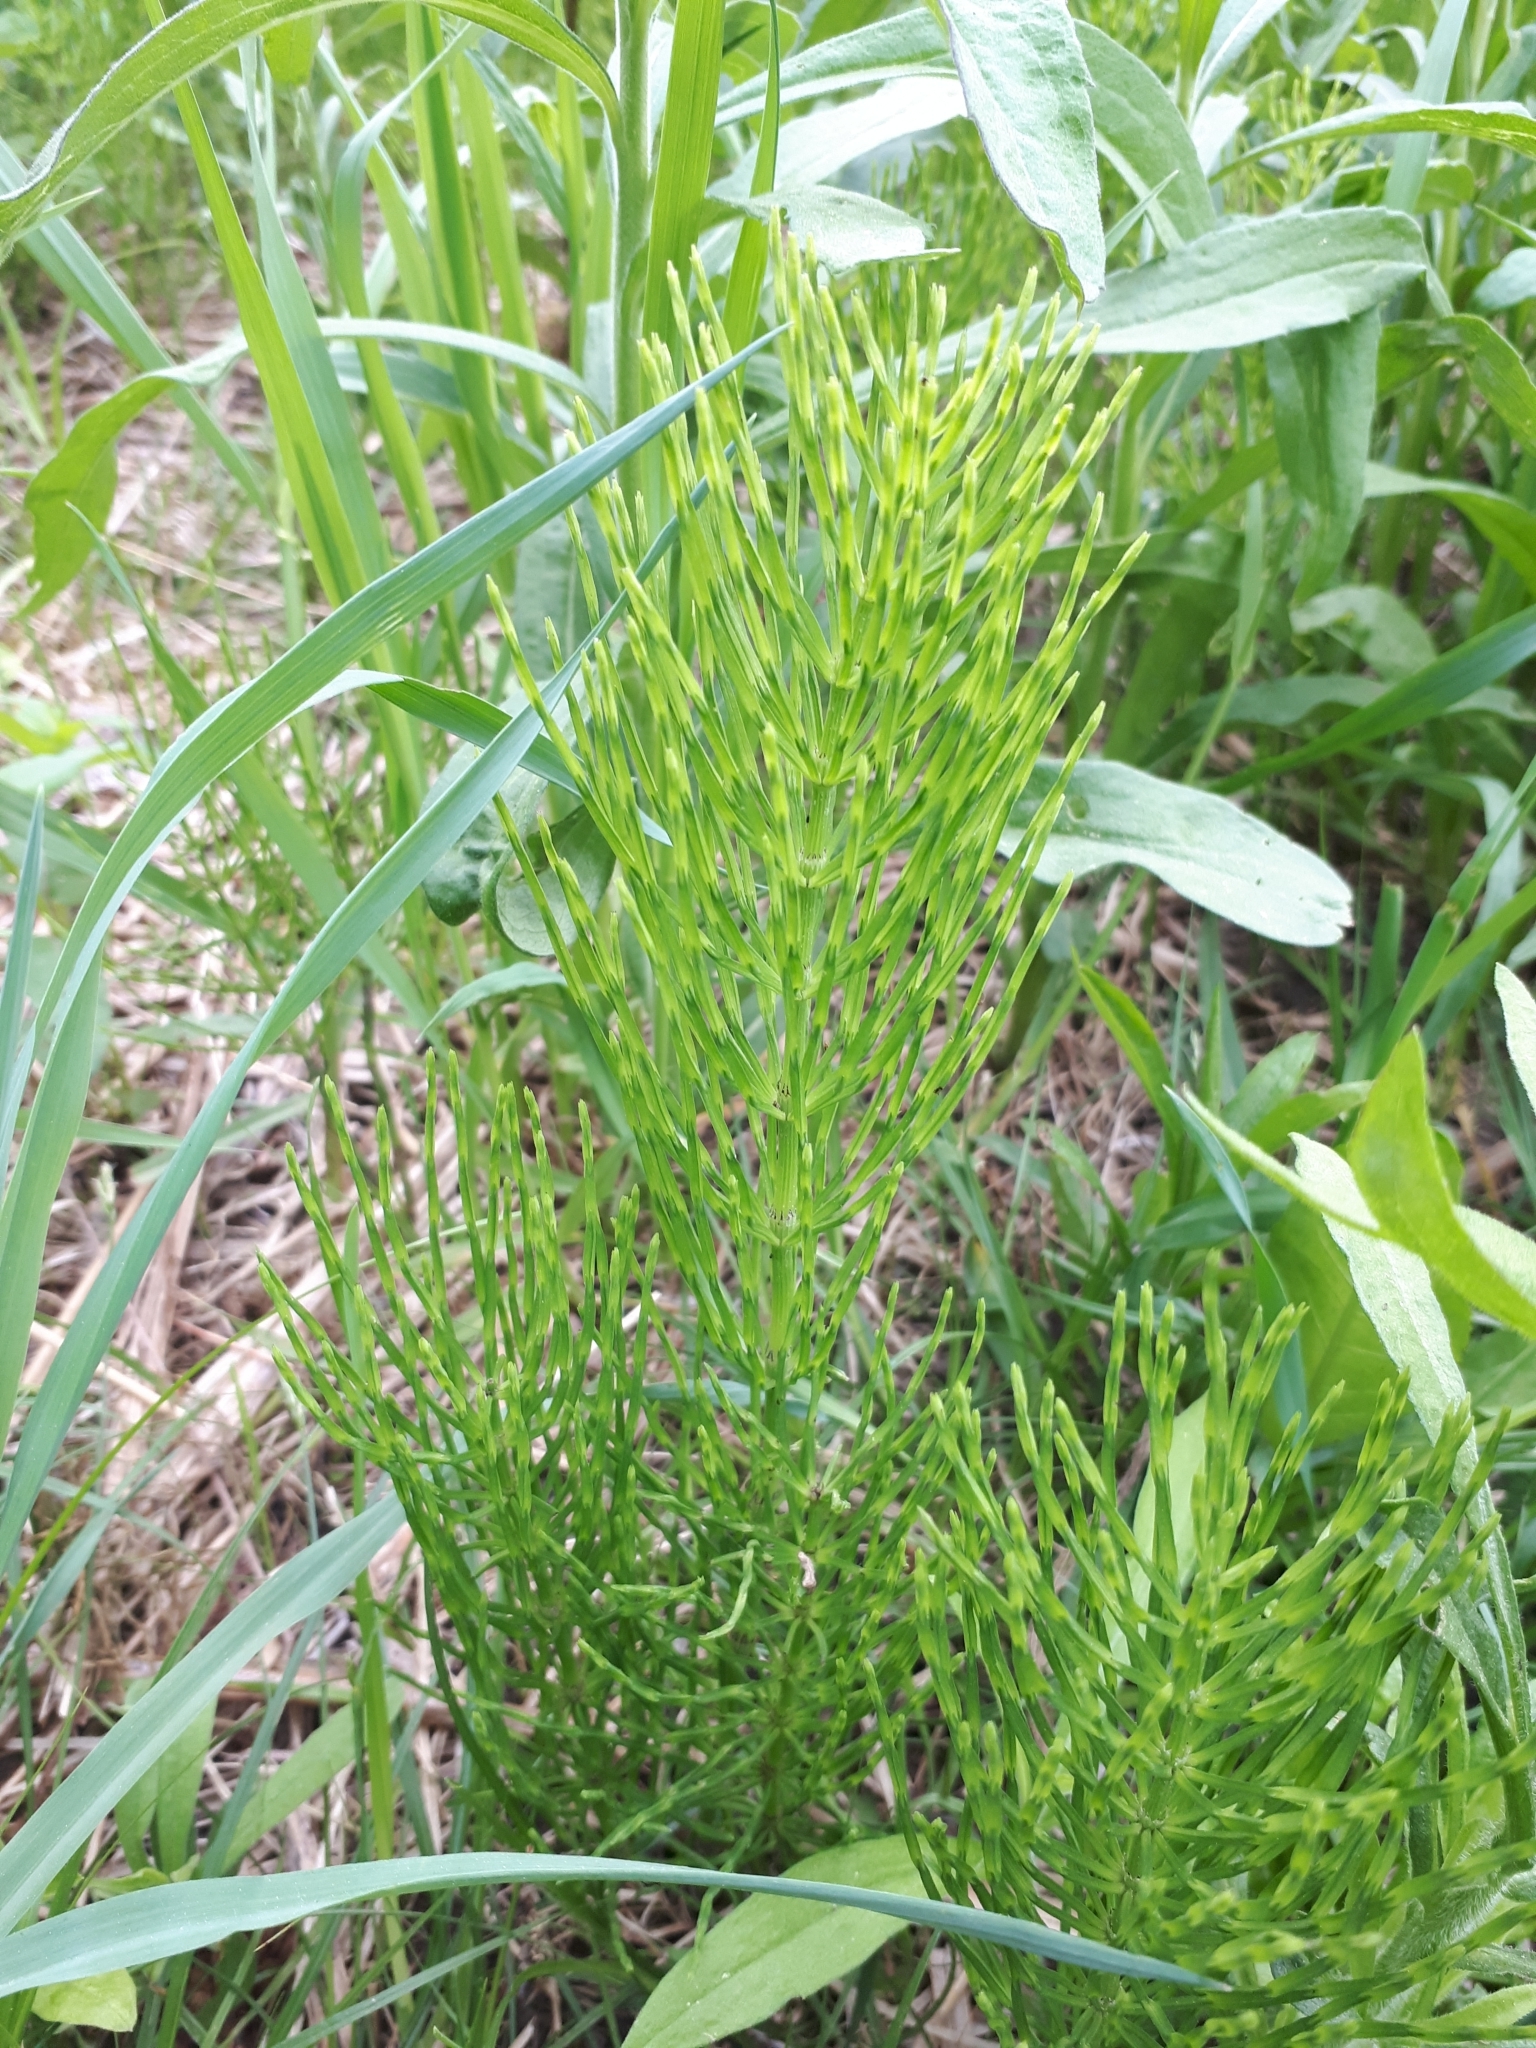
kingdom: Plantae
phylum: Tracheophyta
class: Polypodiopsida
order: Equisetales
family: Equisetaceae
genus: Equisetum
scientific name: Equisetum arvense
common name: Field horsetail
